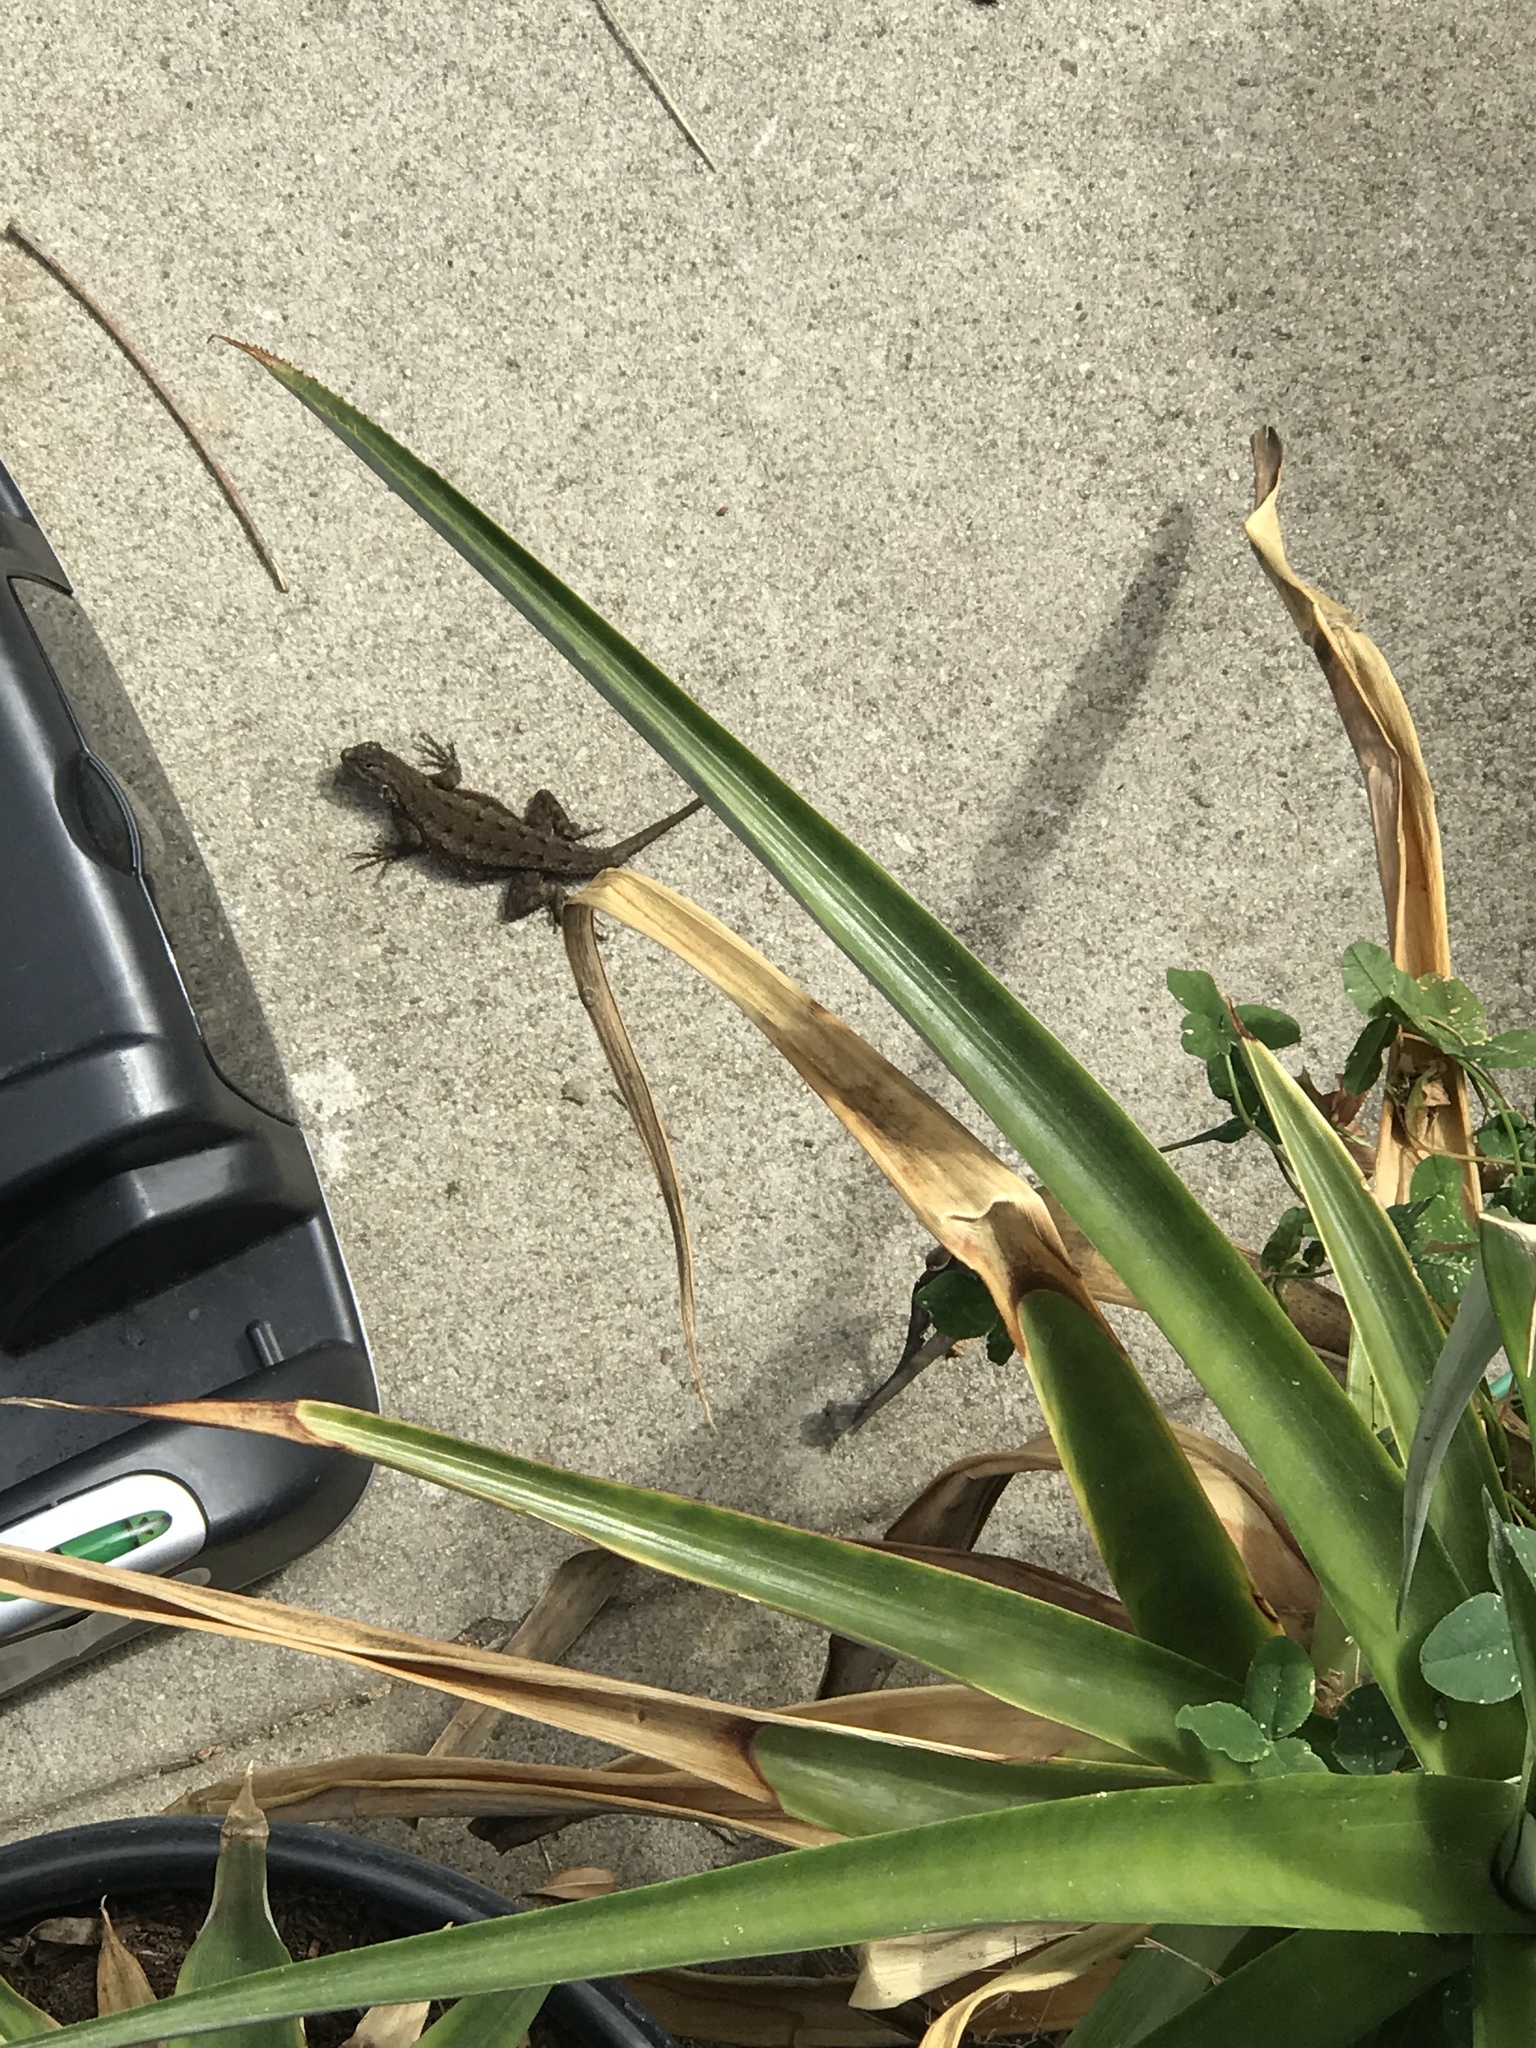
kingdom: Animalia
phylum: Chordata
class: Squamata
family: Phrynosomatidae
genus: Sceloporus
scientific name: Sceloporus occidentalis
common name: Western fence lizard
